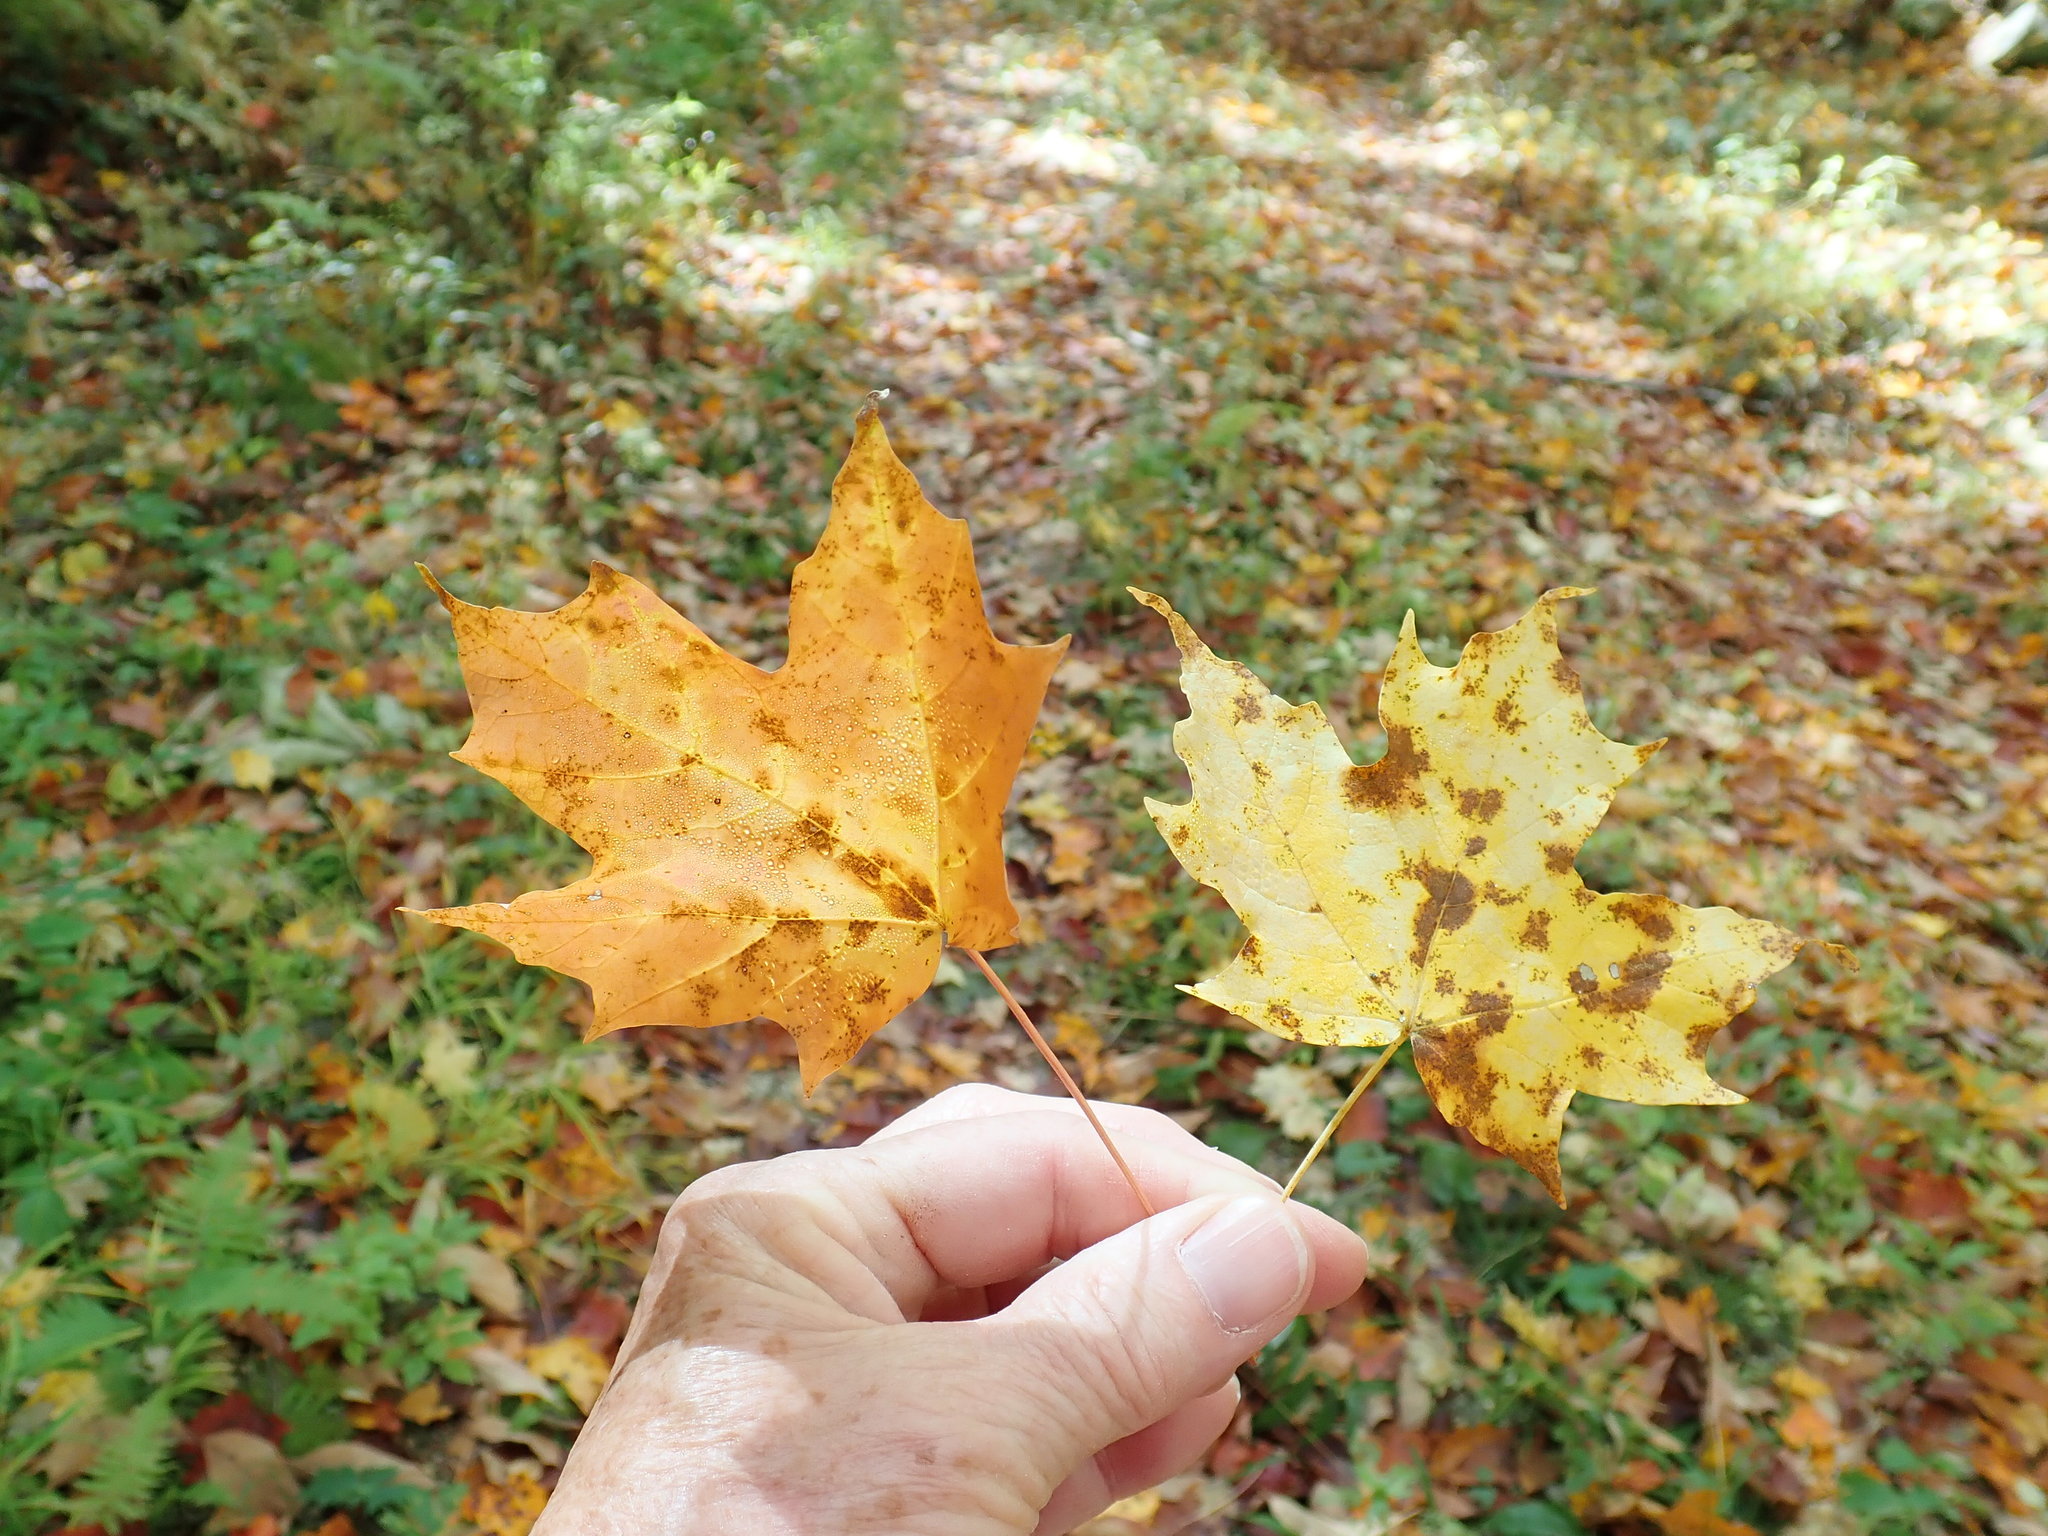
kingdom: Plantae
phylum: Tracheophyta
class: Magnoliopsida
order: Sapindales
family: Sapindaceae
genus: Acer
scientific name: Acer saccharum
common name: Sugar maple
